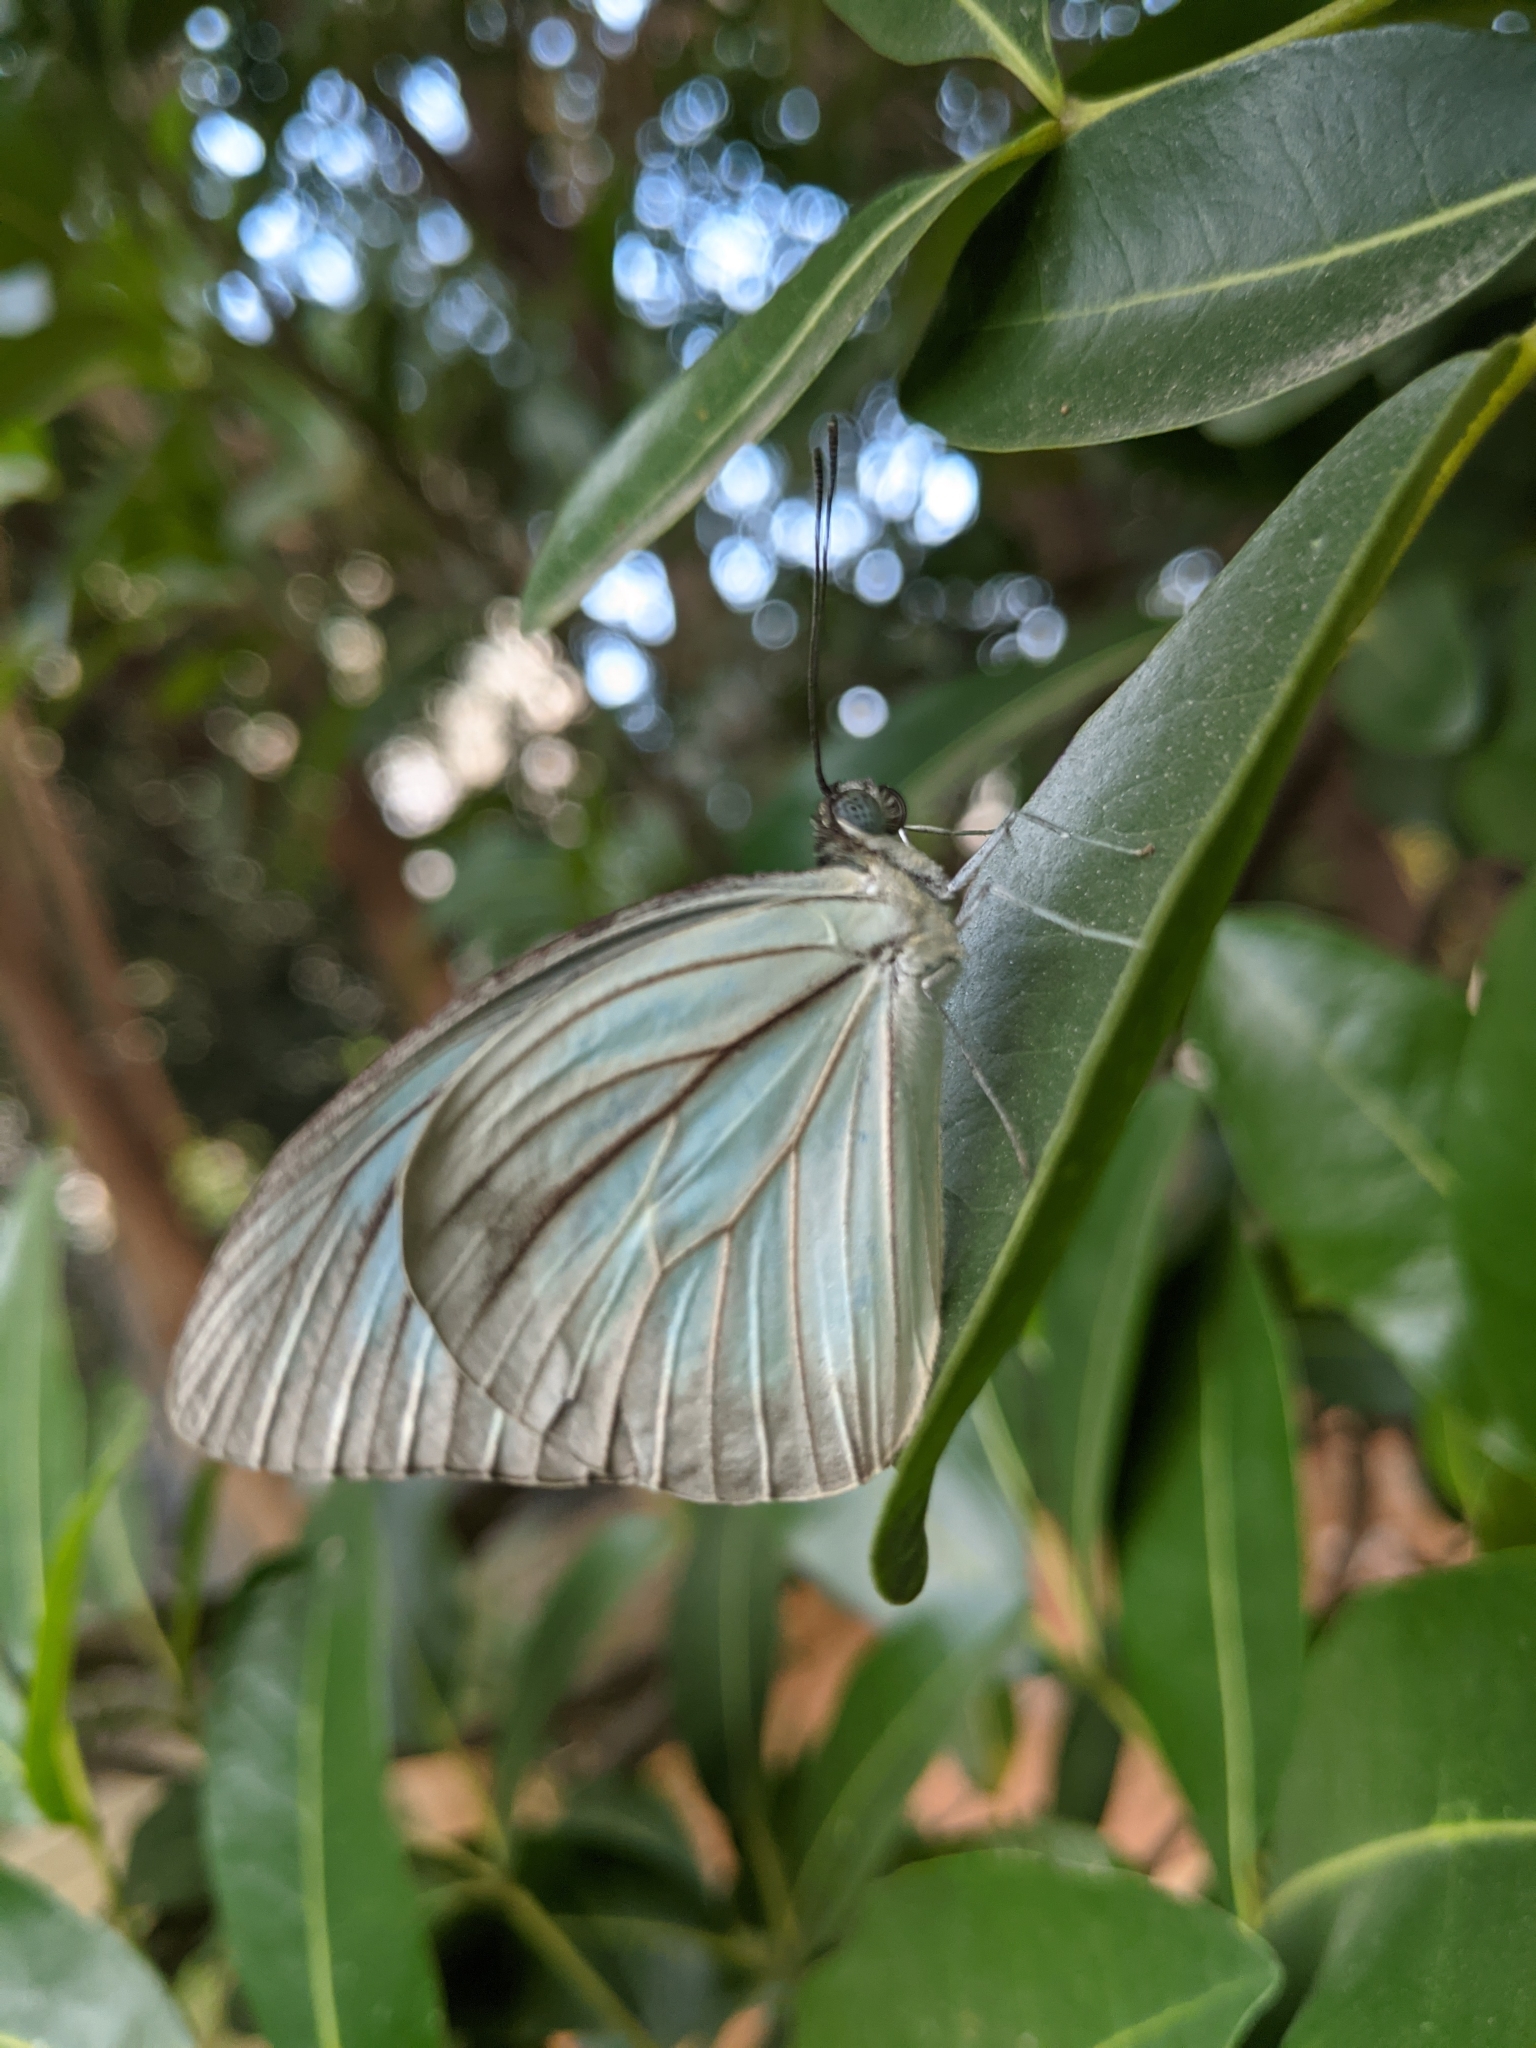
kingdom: Animalia
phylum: Arthropoda
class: Insecta
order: Lepidoptera
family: Pieridae
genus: Pareronia
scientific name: Pareronia hippia
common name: Indian wanderer
